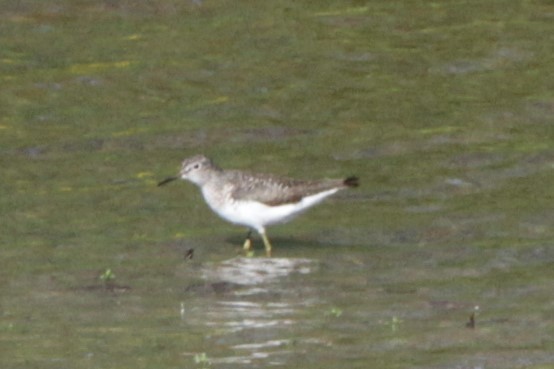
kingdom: Animalia
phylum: Chordata
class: Aves
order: Charadriiformes
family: Scolopacidae
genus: Tringa
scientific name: Tringa solitaria
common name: Solitary sandpiper
